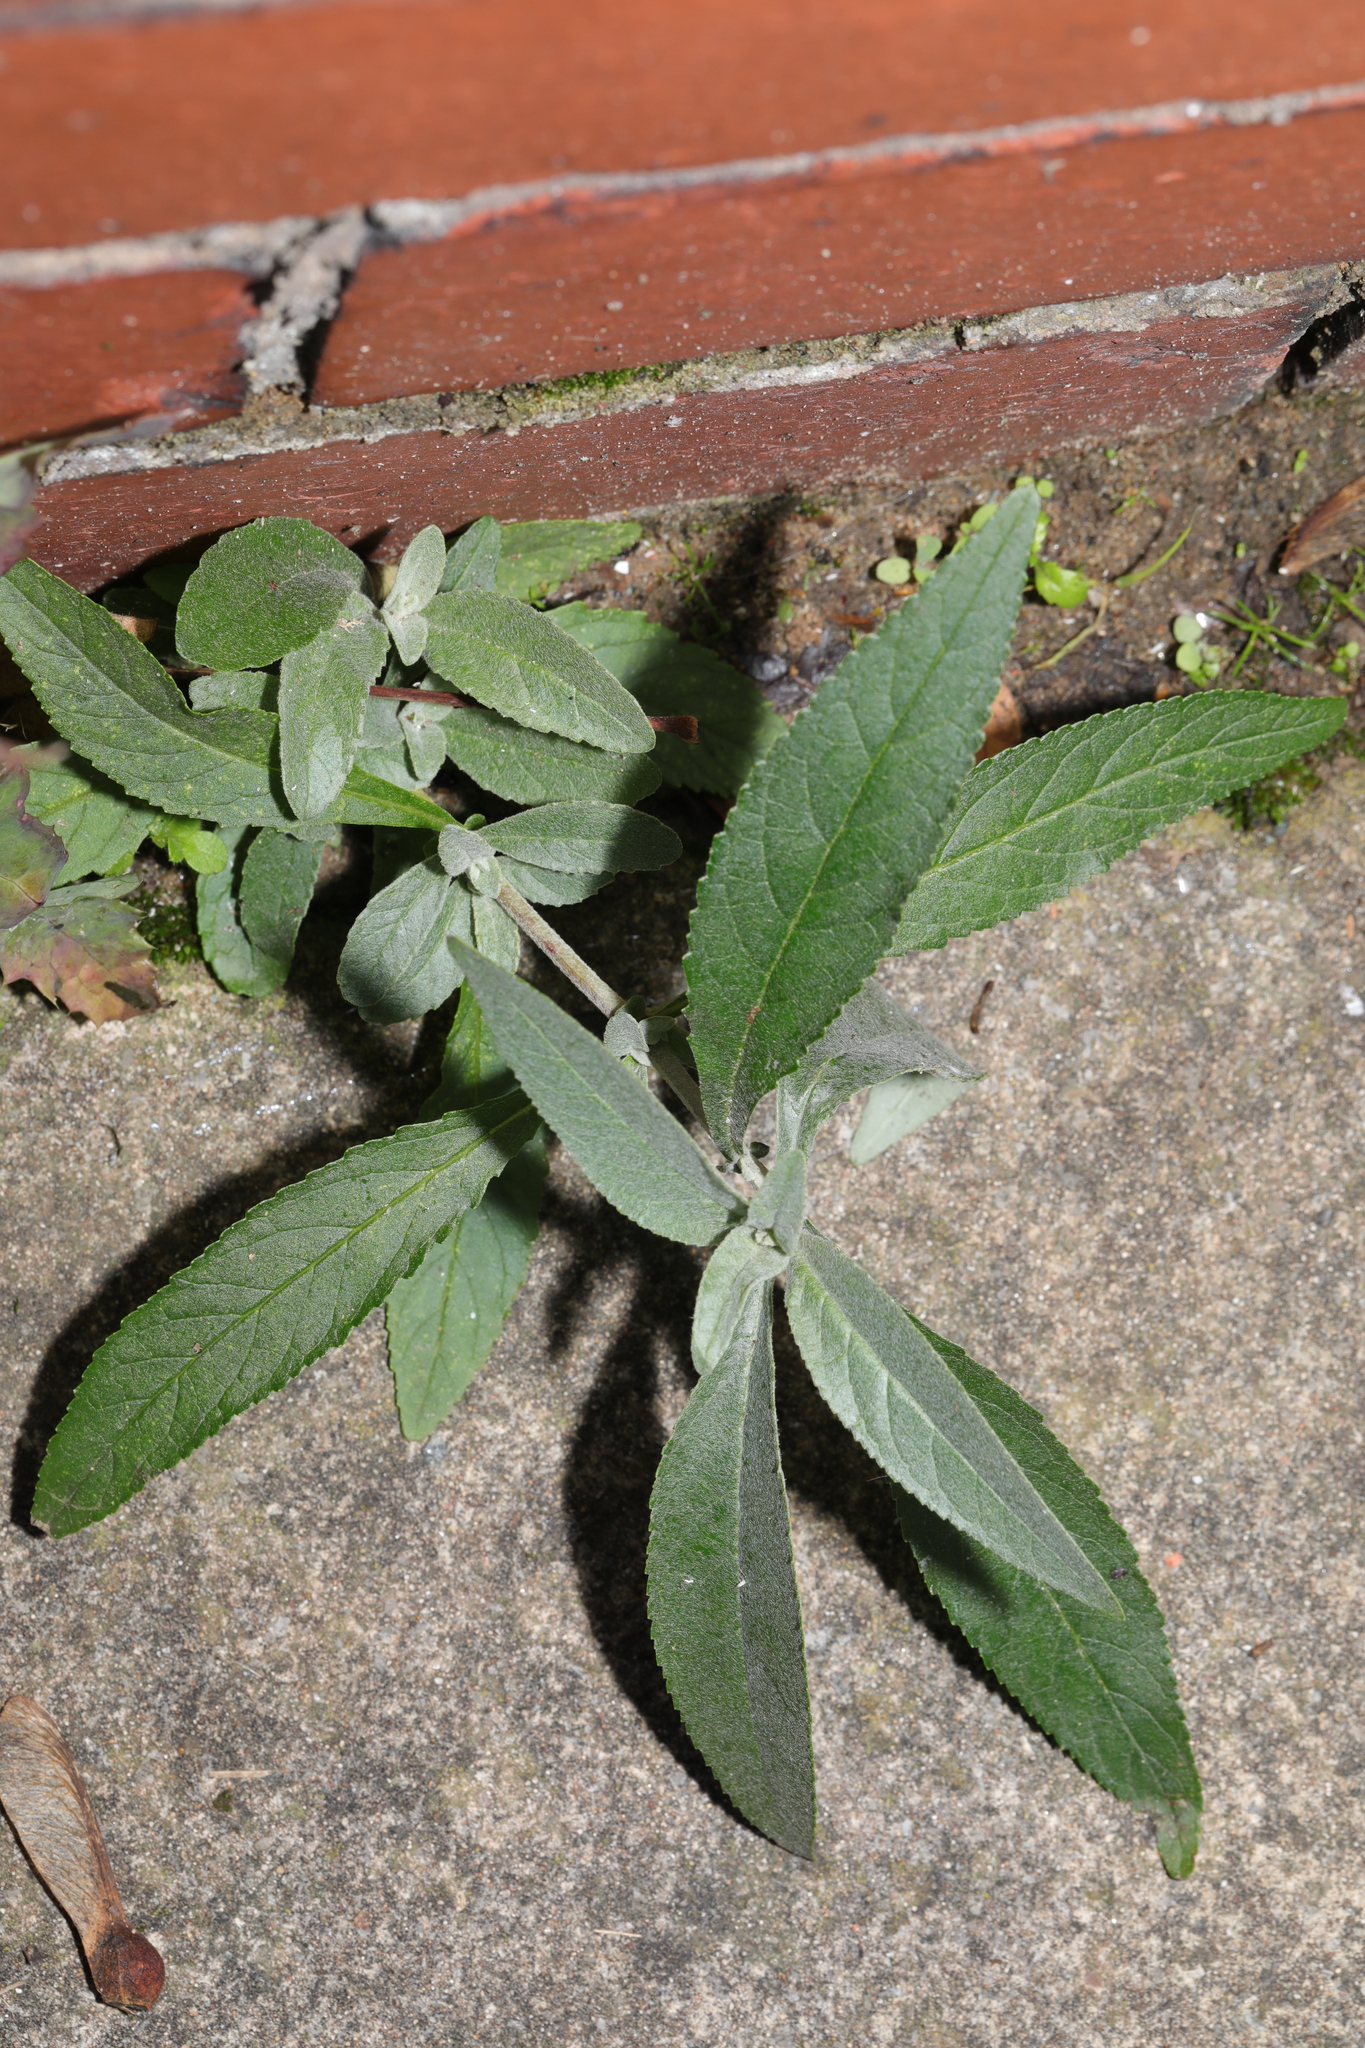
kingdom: Plantae
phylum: Tracheophyta
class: Magnoliopsida
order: Lamiales
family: Scrophulariaceae
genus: Buddleja
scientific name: Buddleja davidii
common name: Butterfly-bush
